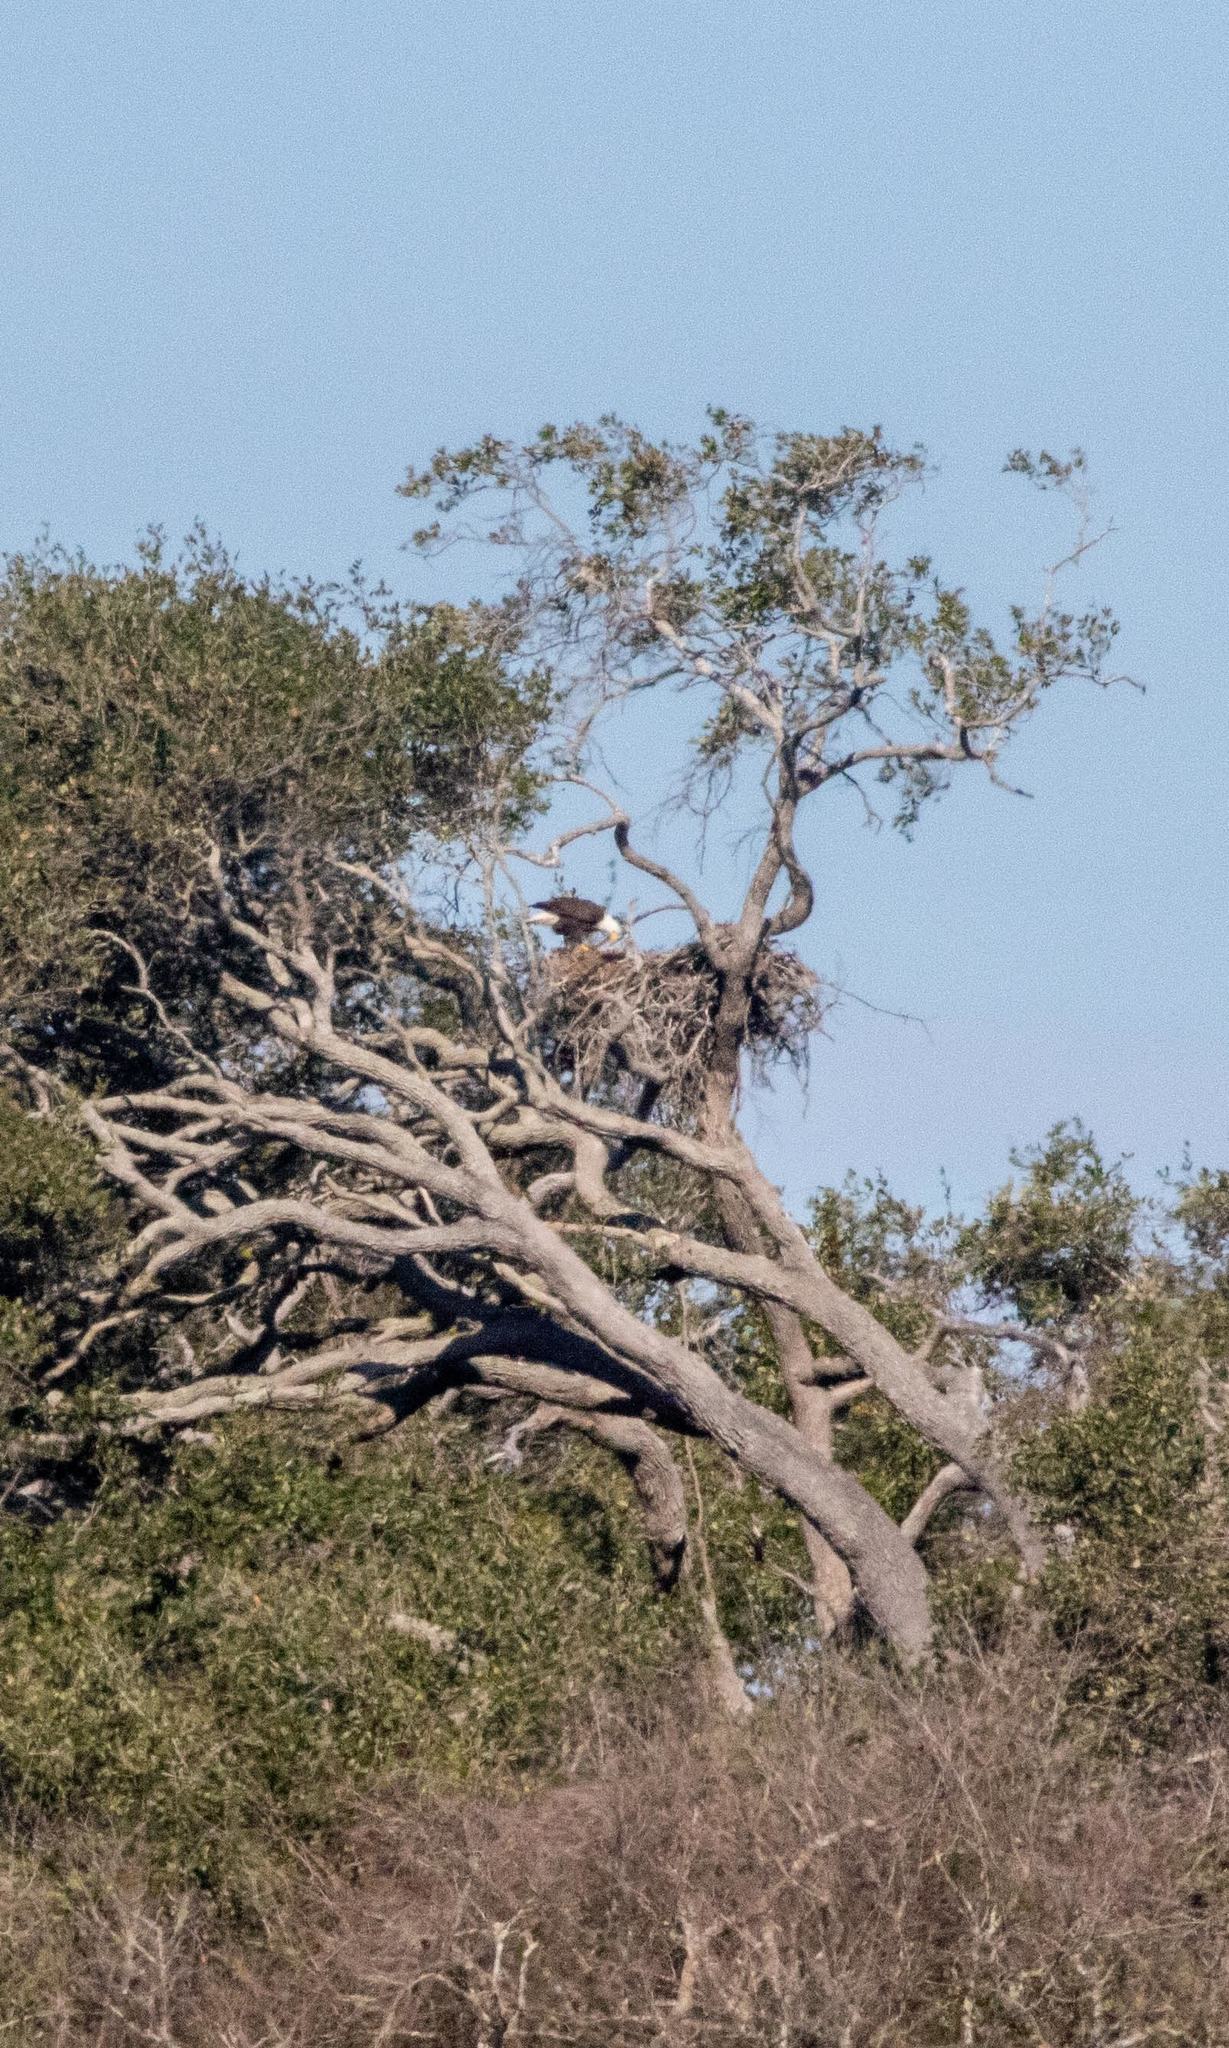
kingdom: Animalia
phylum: Chordata
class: Aves
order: Accipitriformes
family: Accipitridae
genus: Haliaeetus
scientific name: Haliaeetus leucocephalus
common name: Bald eagle
